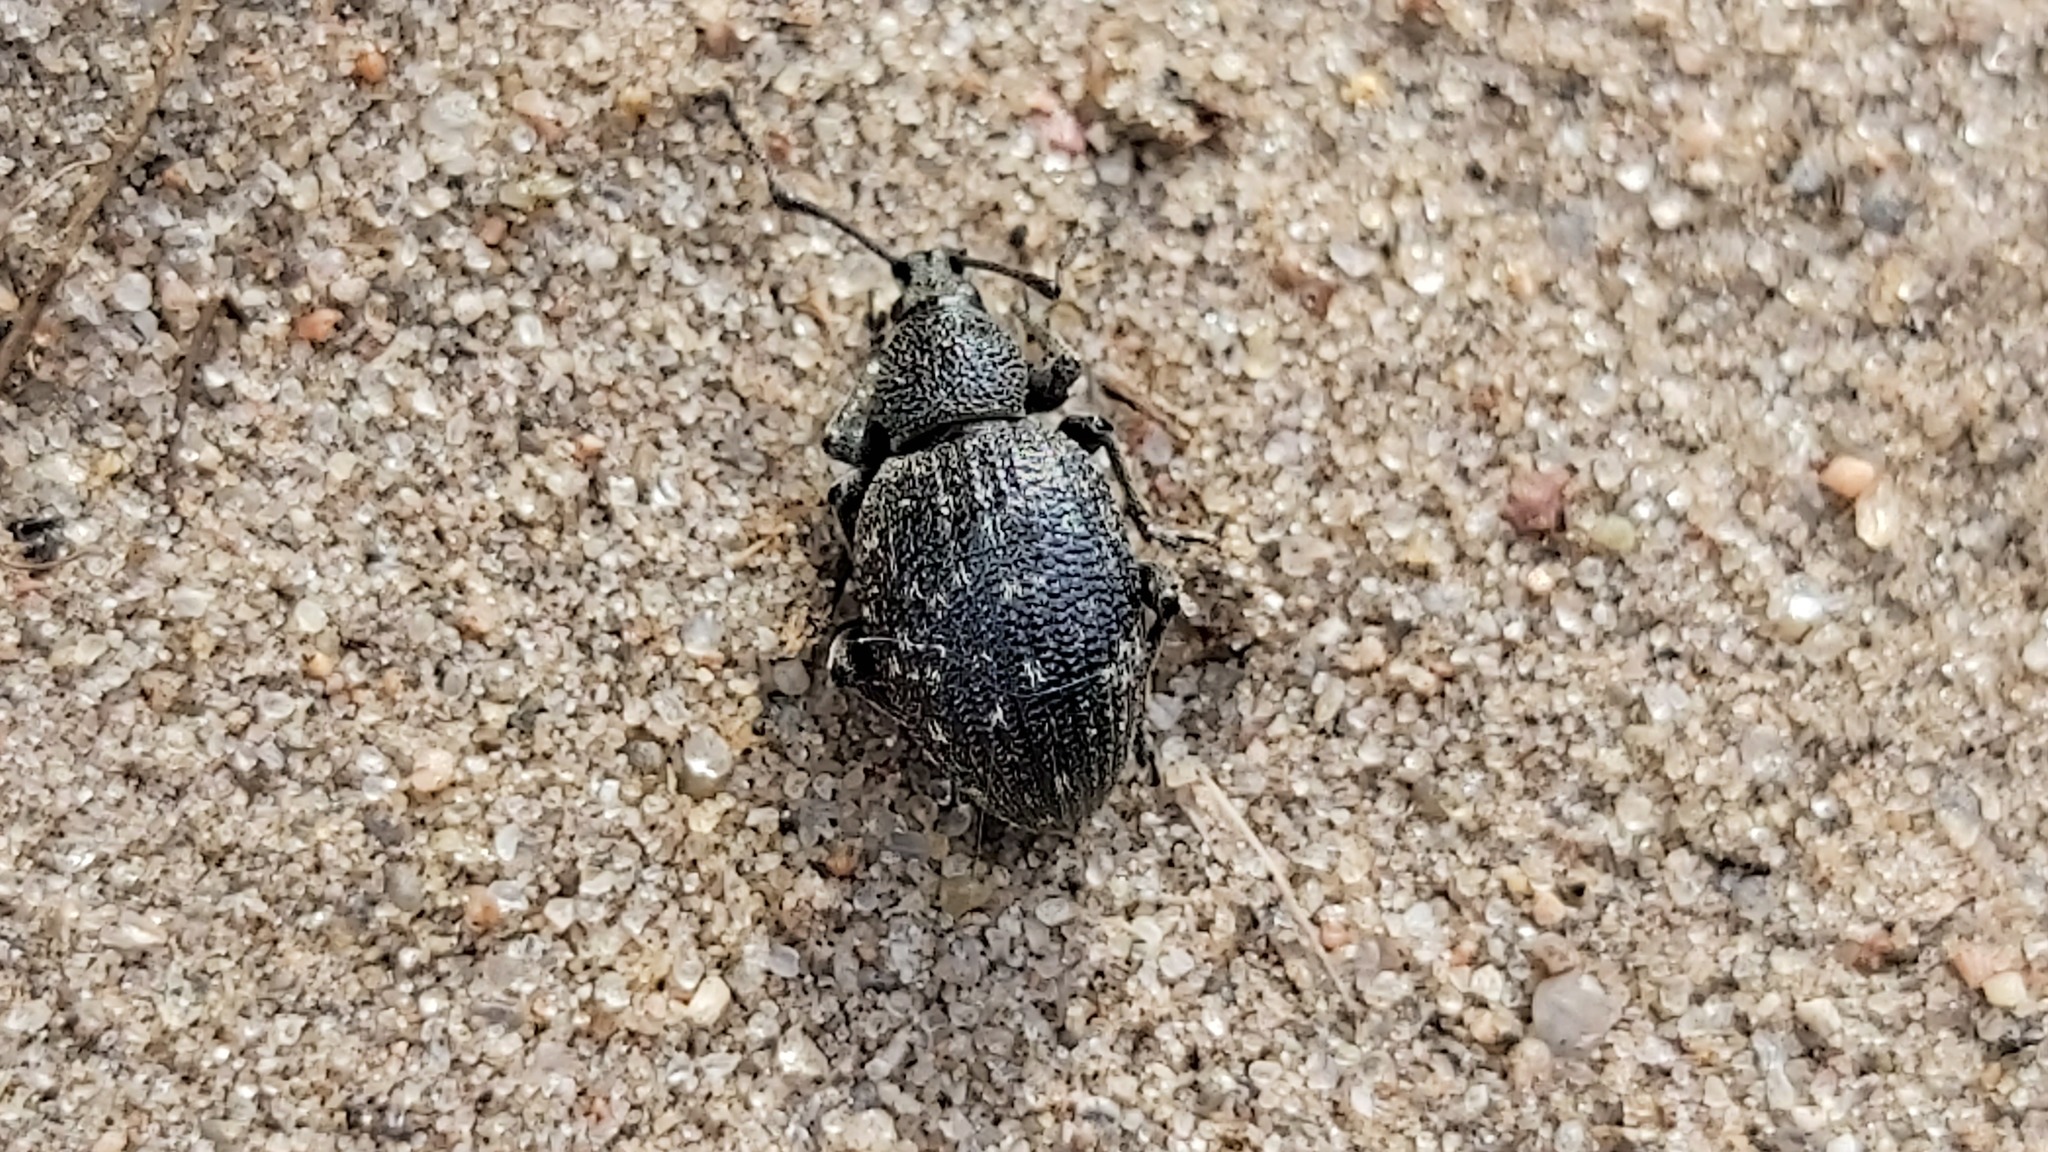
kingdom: Animalia
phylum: Arthropoda
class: Insecta
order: Coleoptera
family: Curculionidae
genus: Otiorhynchus
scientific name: Otiorhynchus tristis
